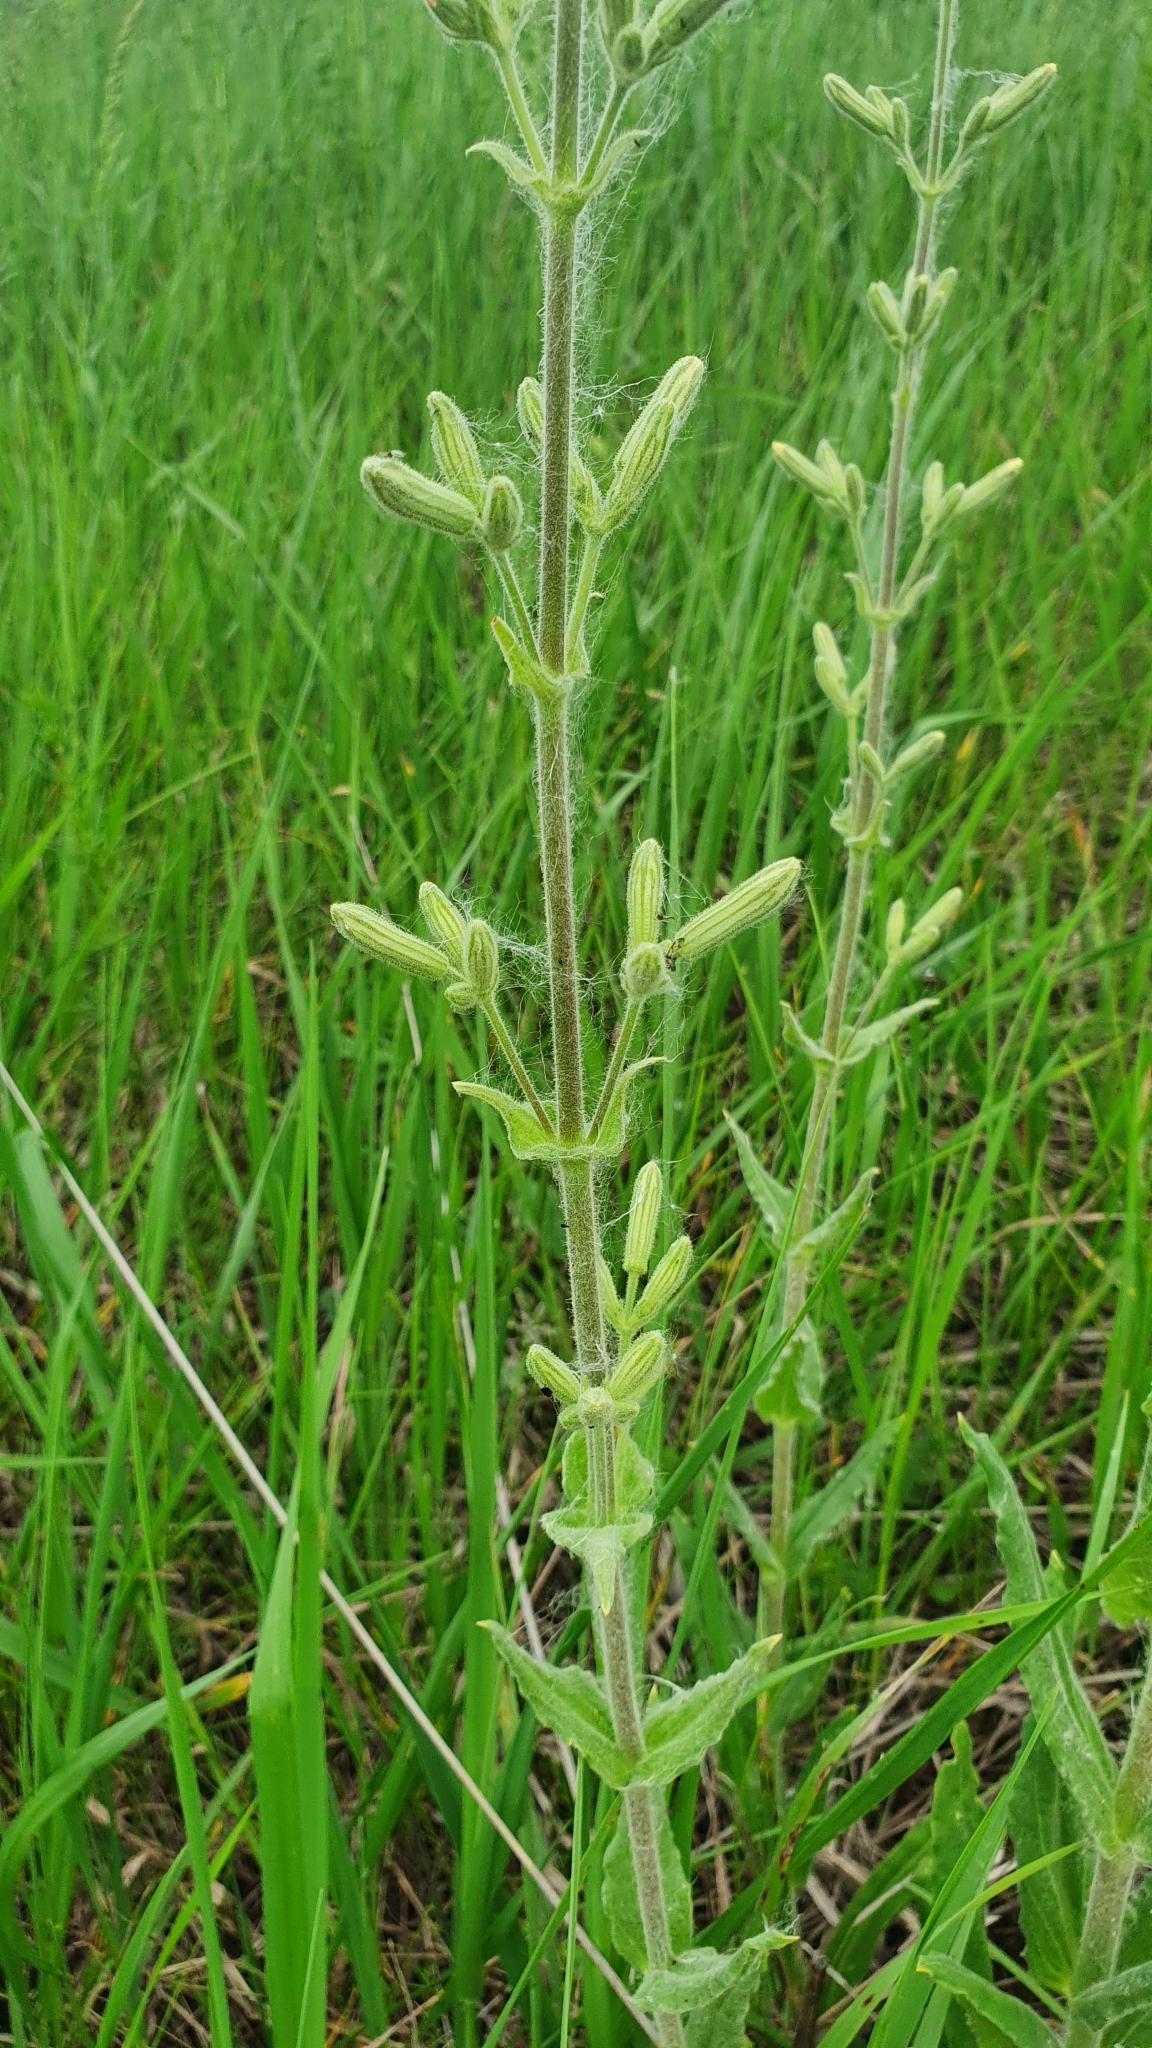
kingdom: Plantae
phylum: Tracheophyta
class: Magnoliopsida
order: Caryophyllales
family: Caryophyllaceae
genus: Silene
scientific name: Silene viscosa
